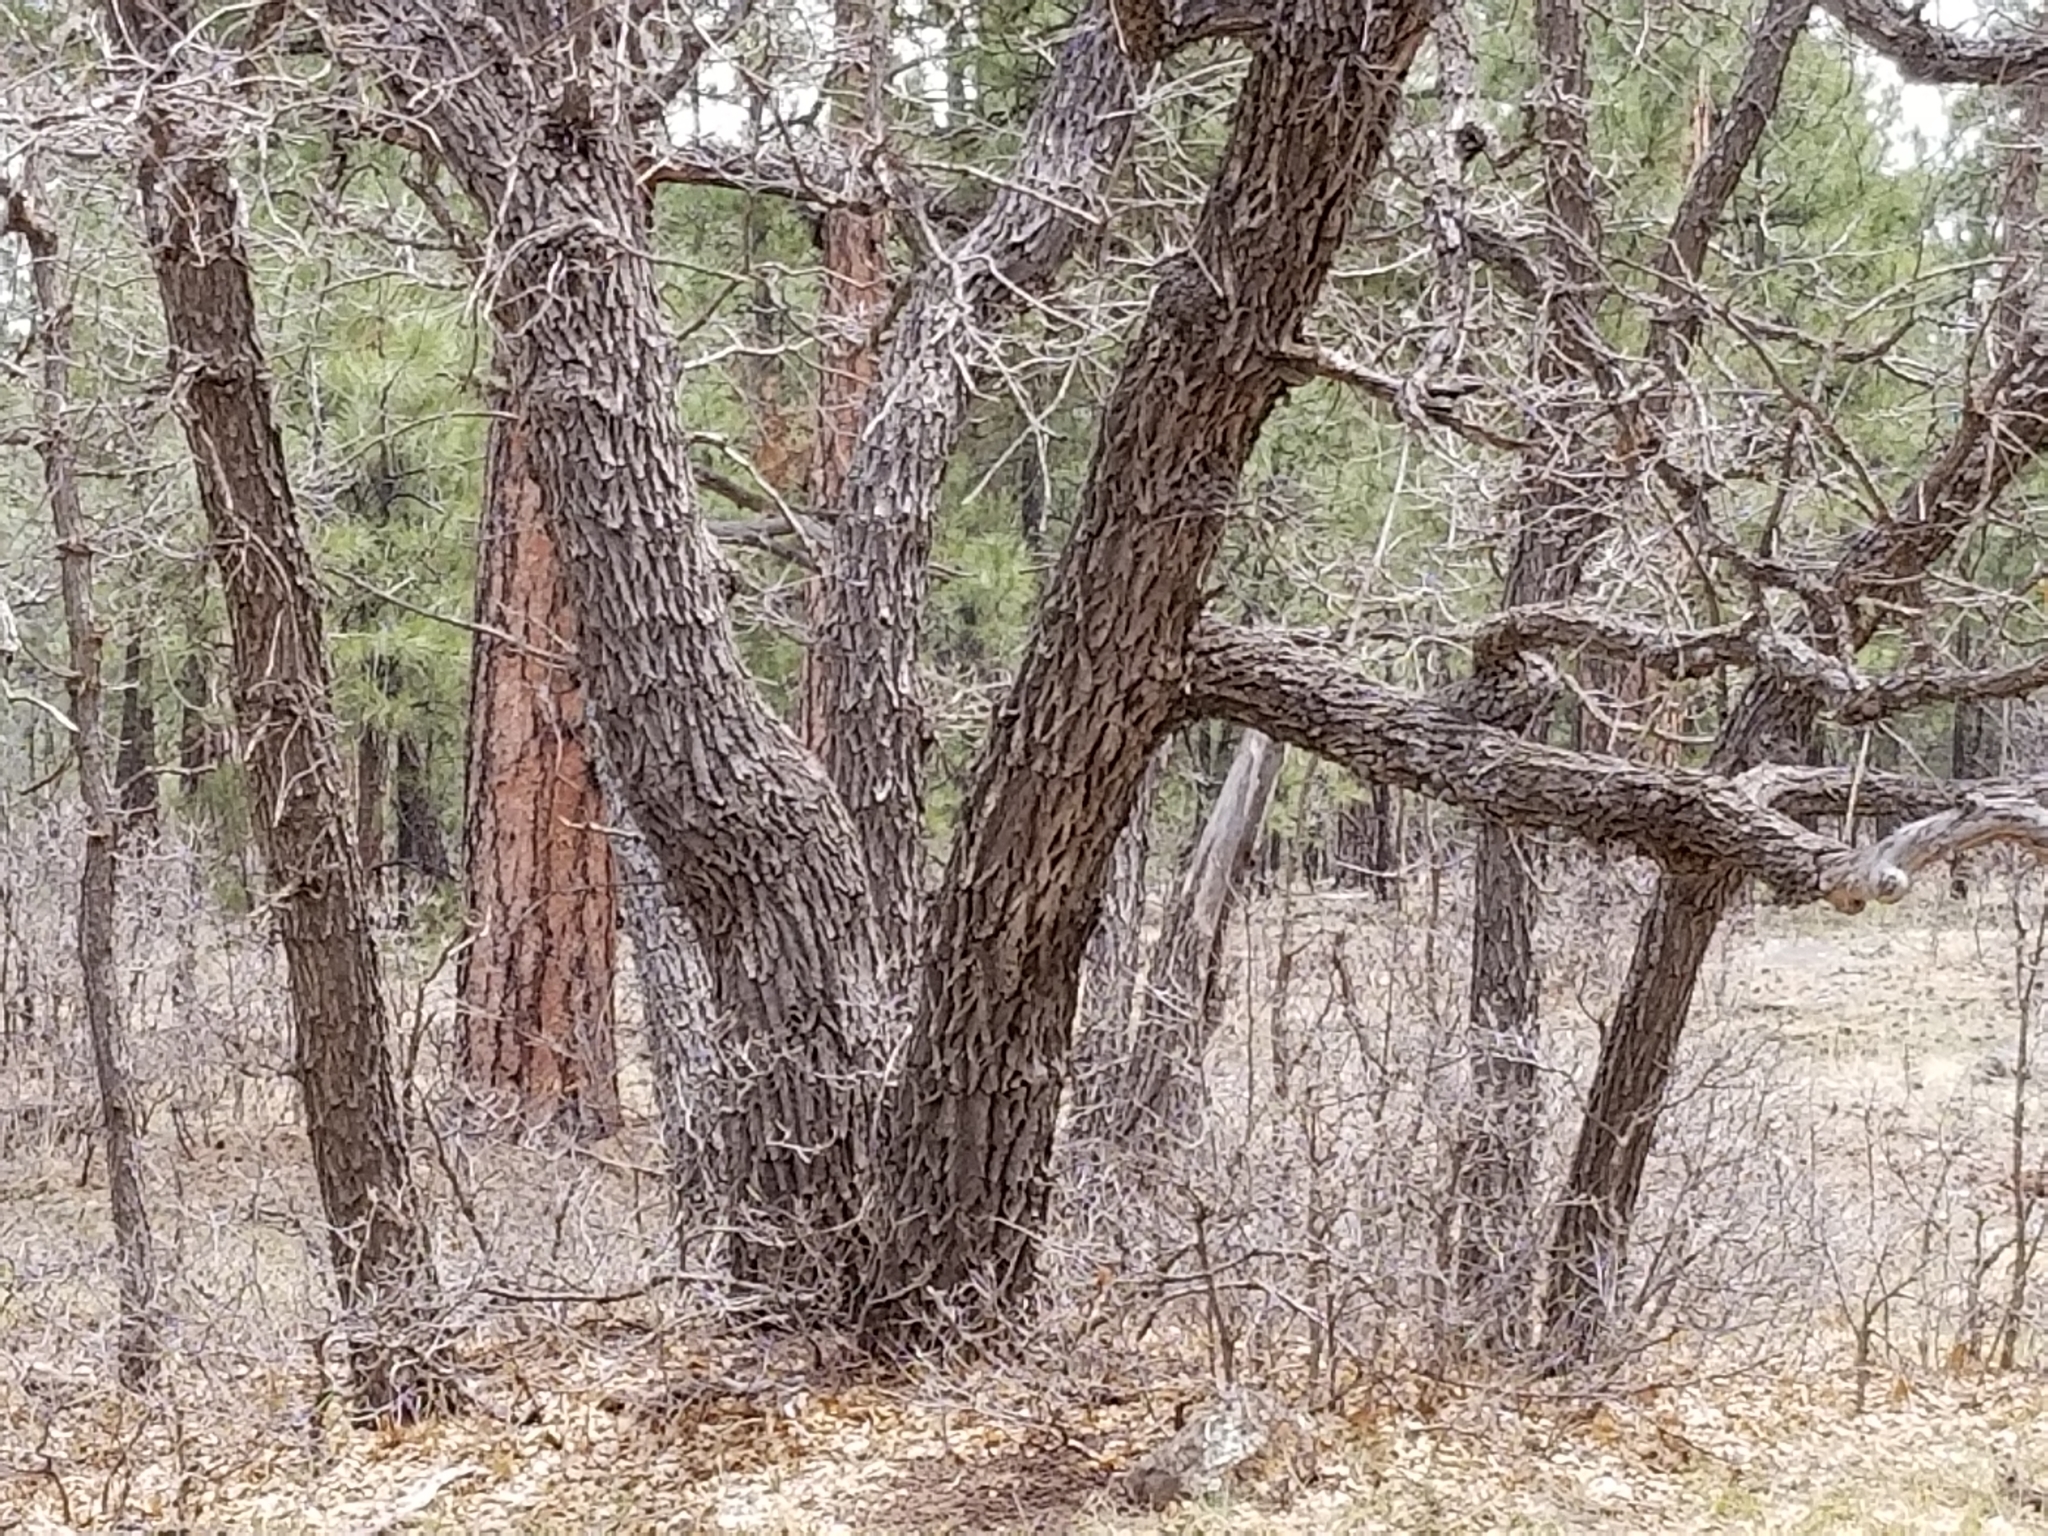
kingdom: Plantae
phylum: Tracheophyta
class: Magnoliopsida
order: Fagales
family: Fagaceae
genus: Quercus
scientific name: Quercus gambelii
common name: Gambel oak
